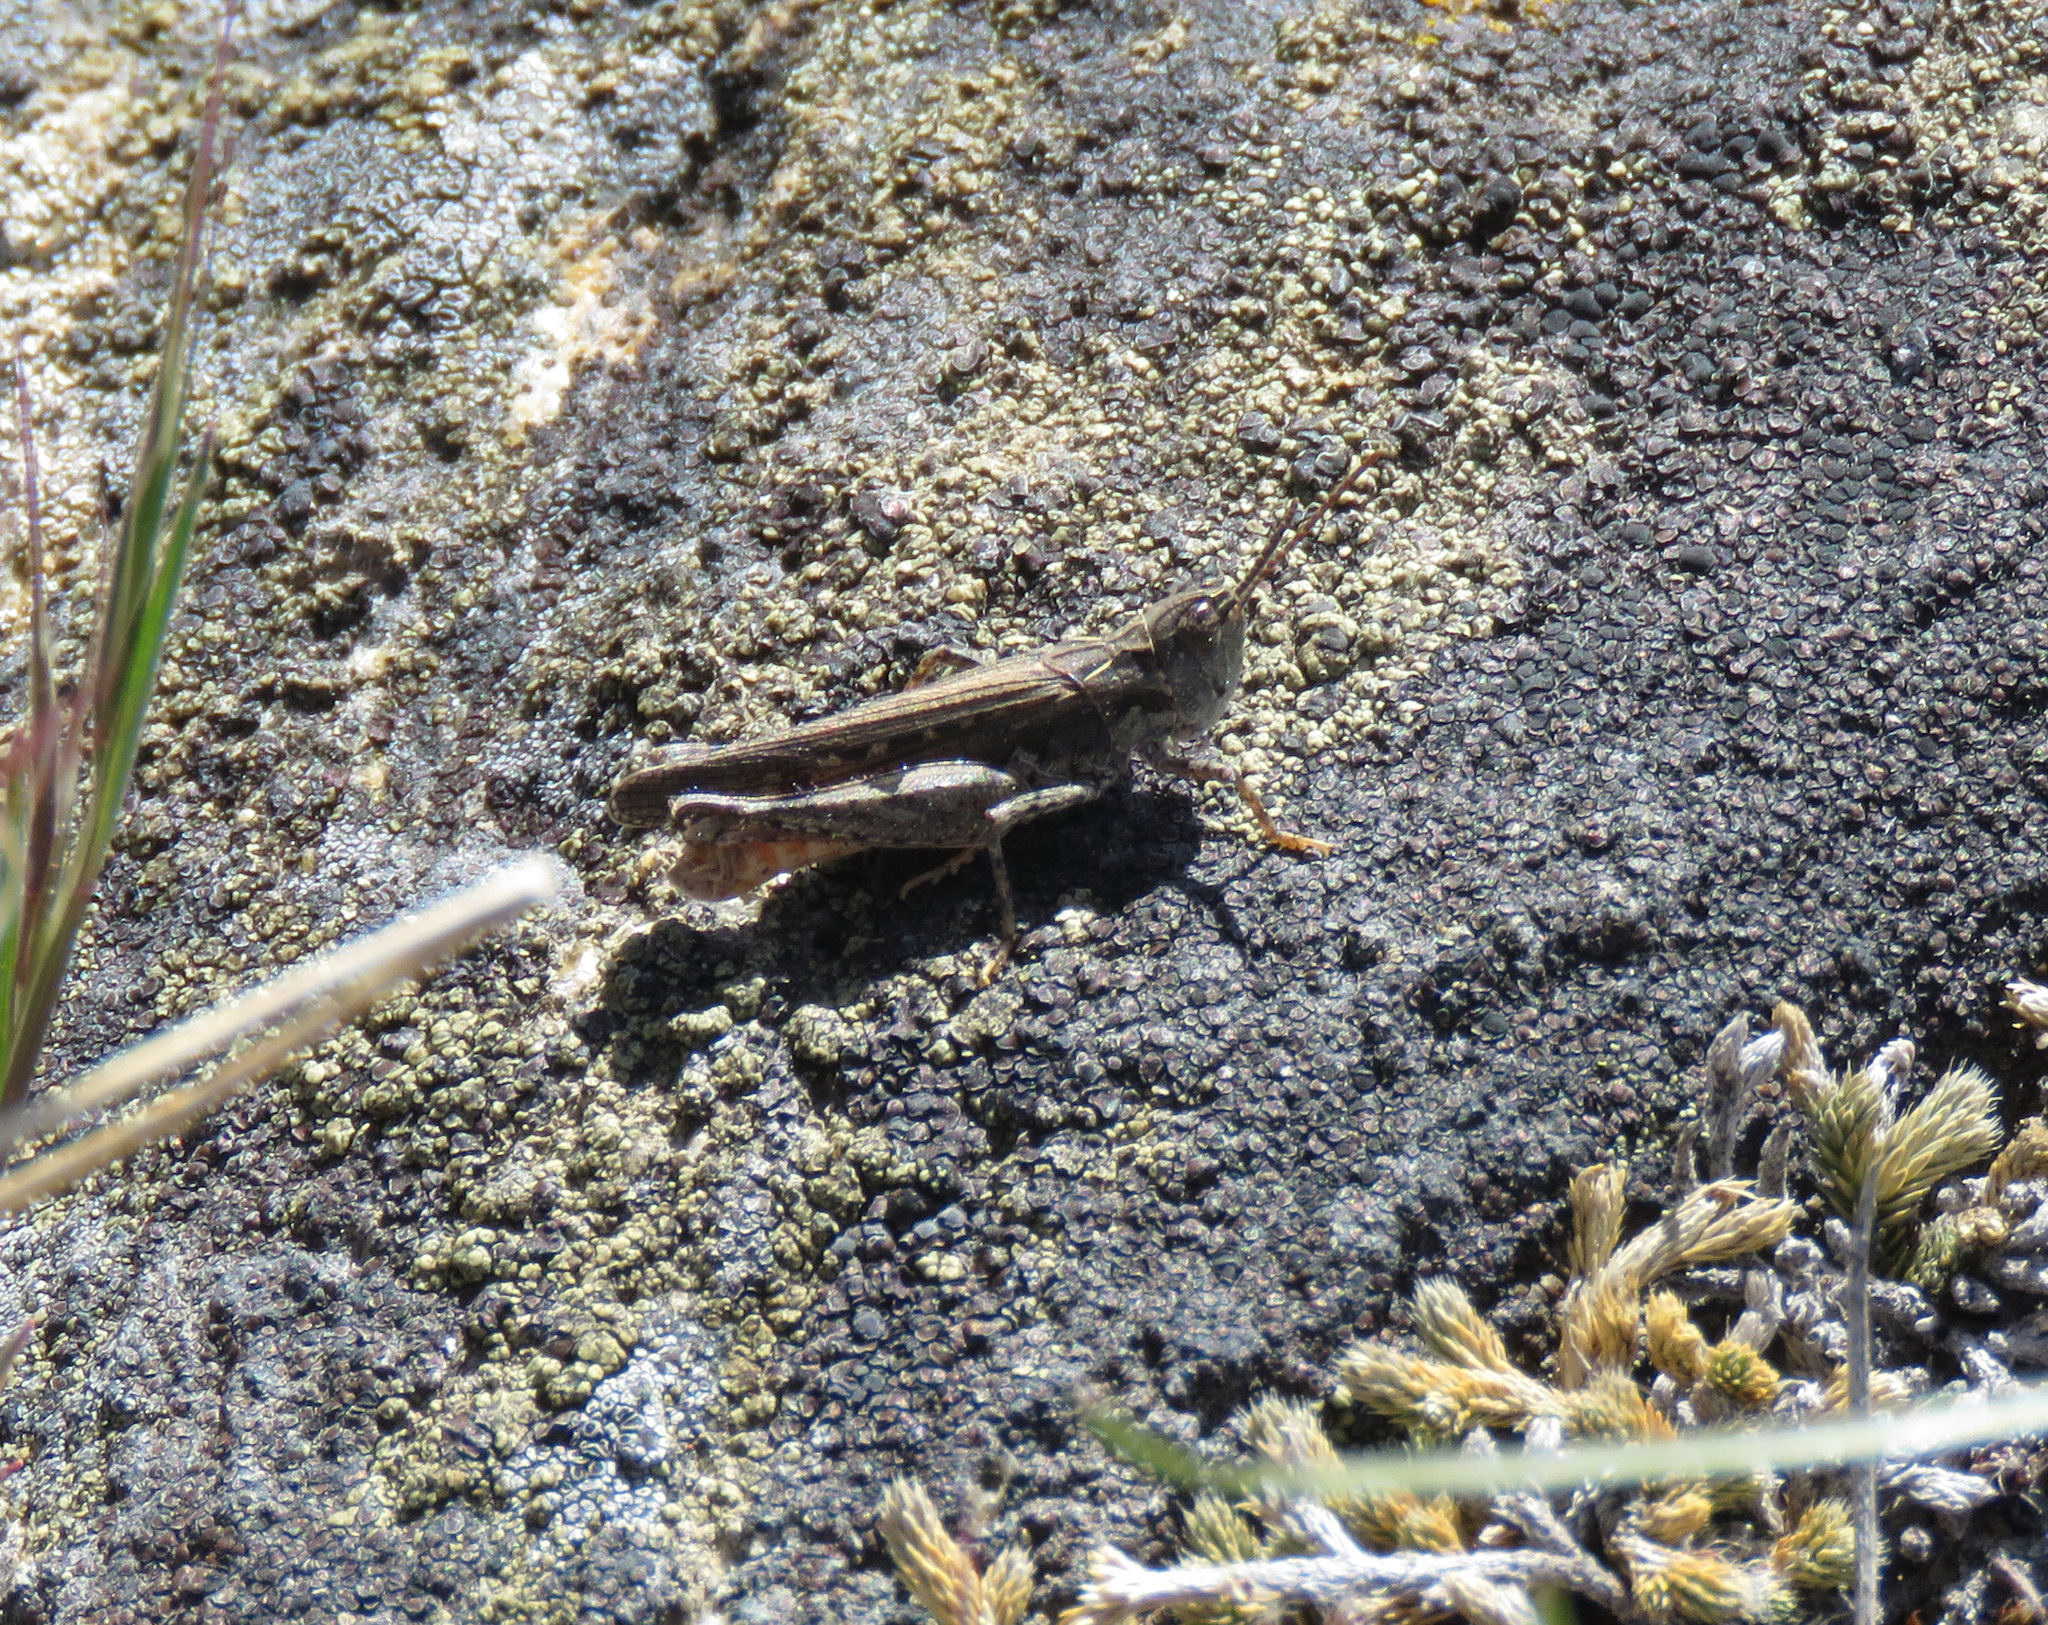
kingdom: Animalia
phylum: Arthropoda
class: Insecta
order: Orthoptera
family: Acrididae
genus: Psoloessa
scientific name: Psoloessa delicatula
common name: Brown-spotted range grasshopper
